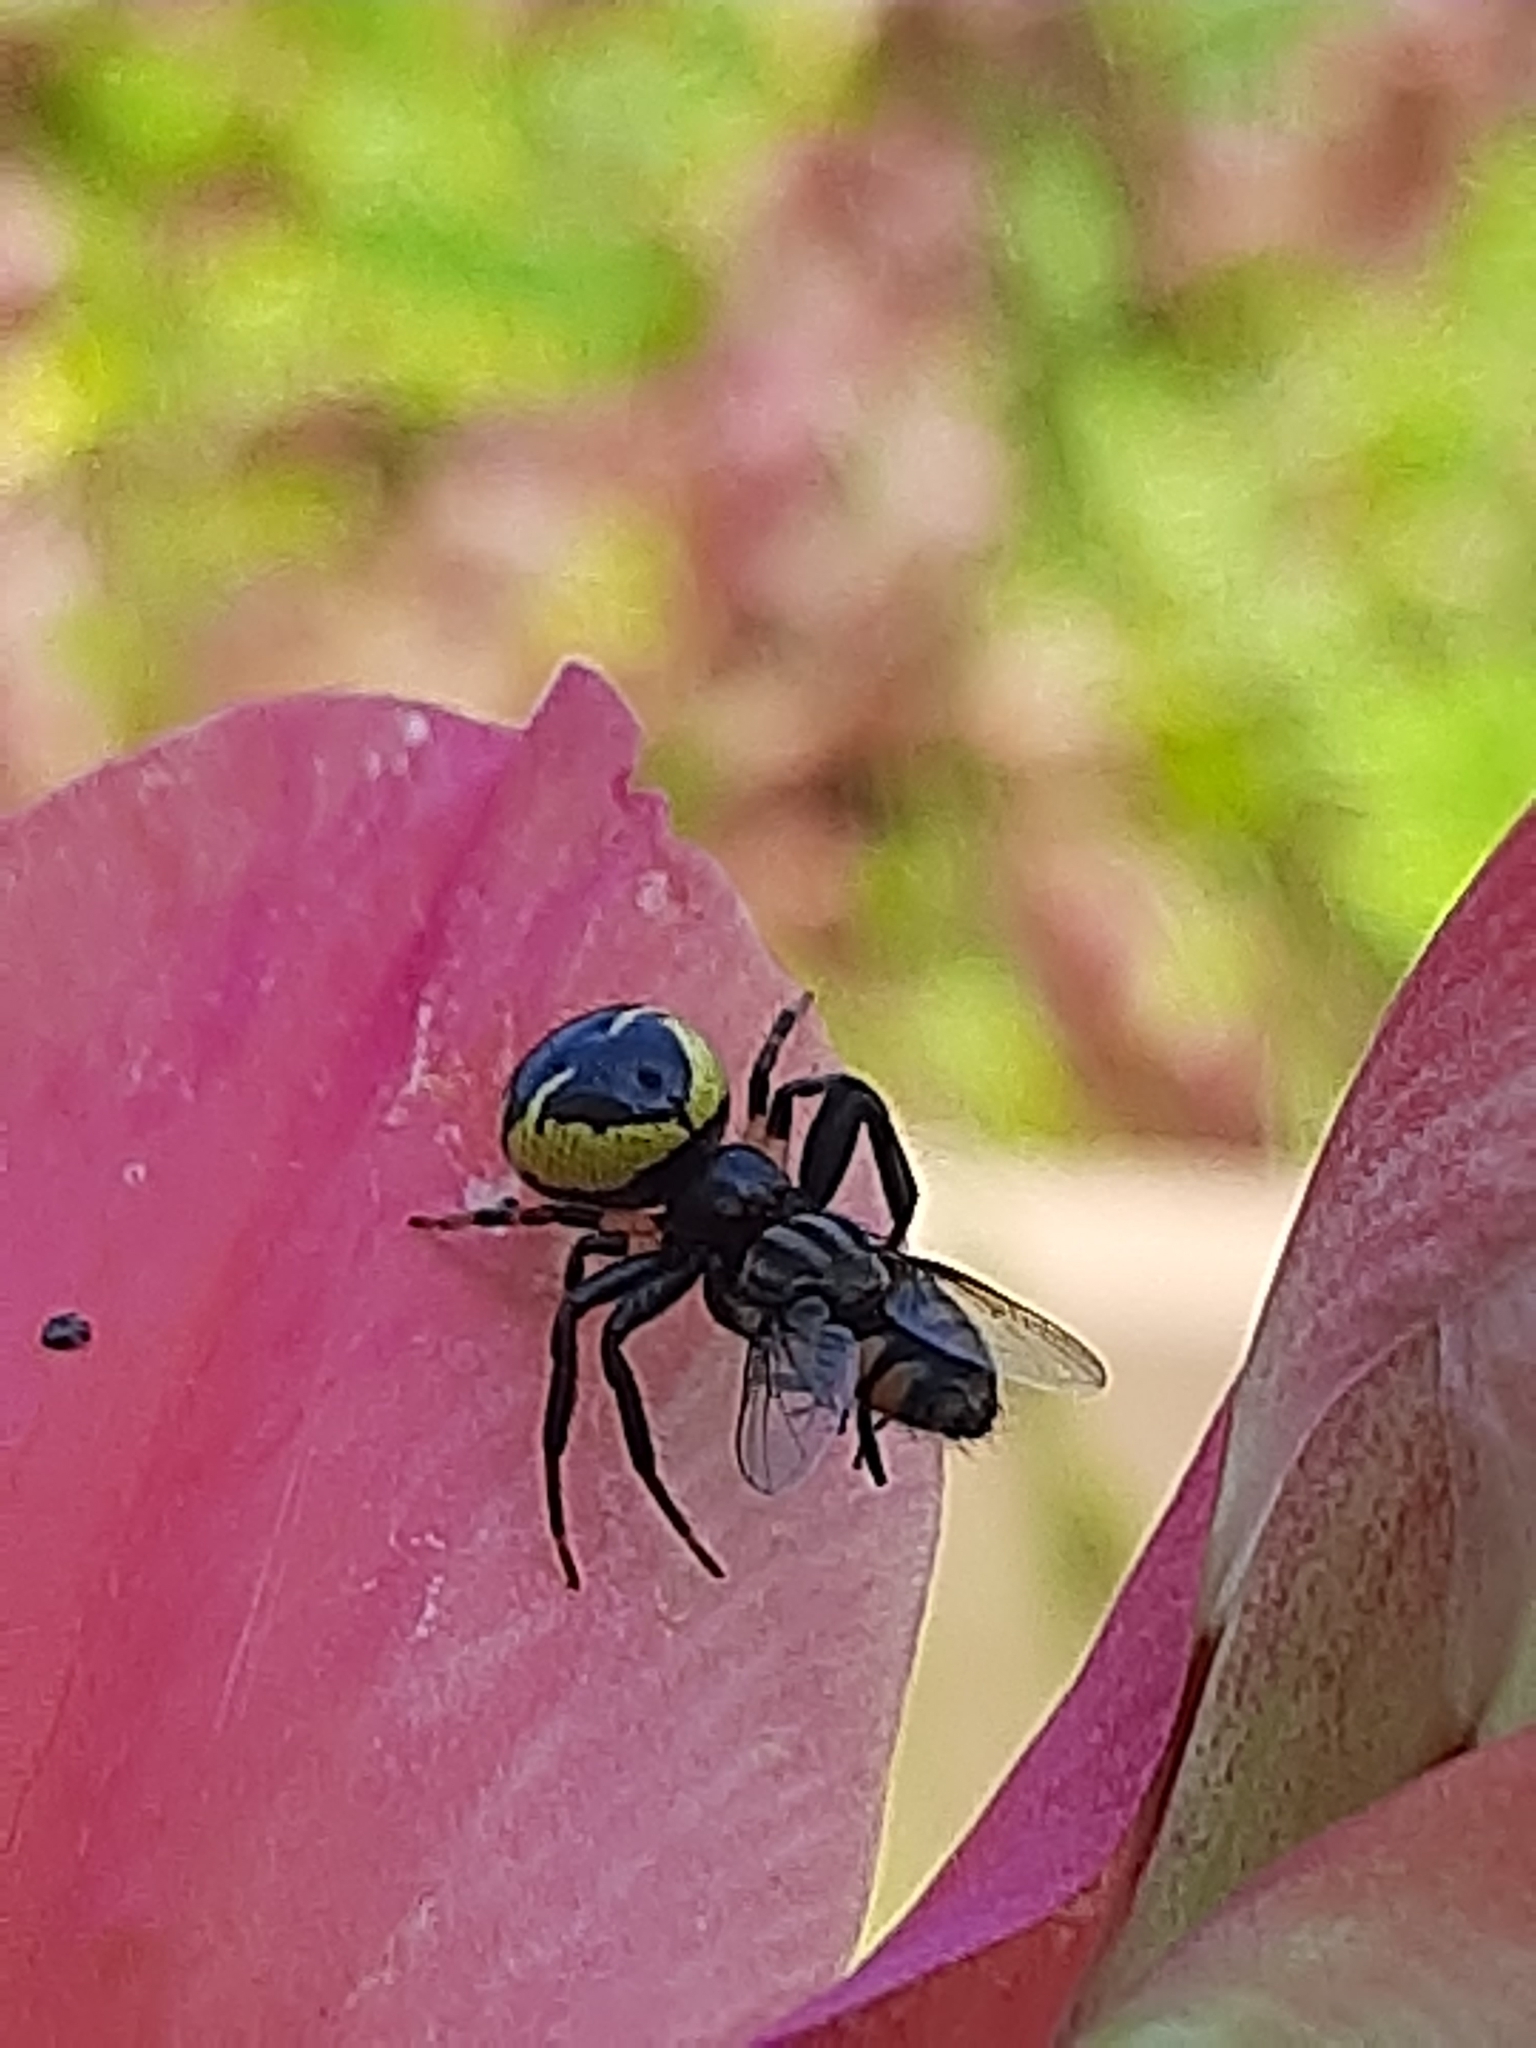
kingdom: Animalia
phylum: Arthropoda
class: Arachnida
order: Araneae
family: Thomisidae
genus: Synema
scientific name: Synema globosum
